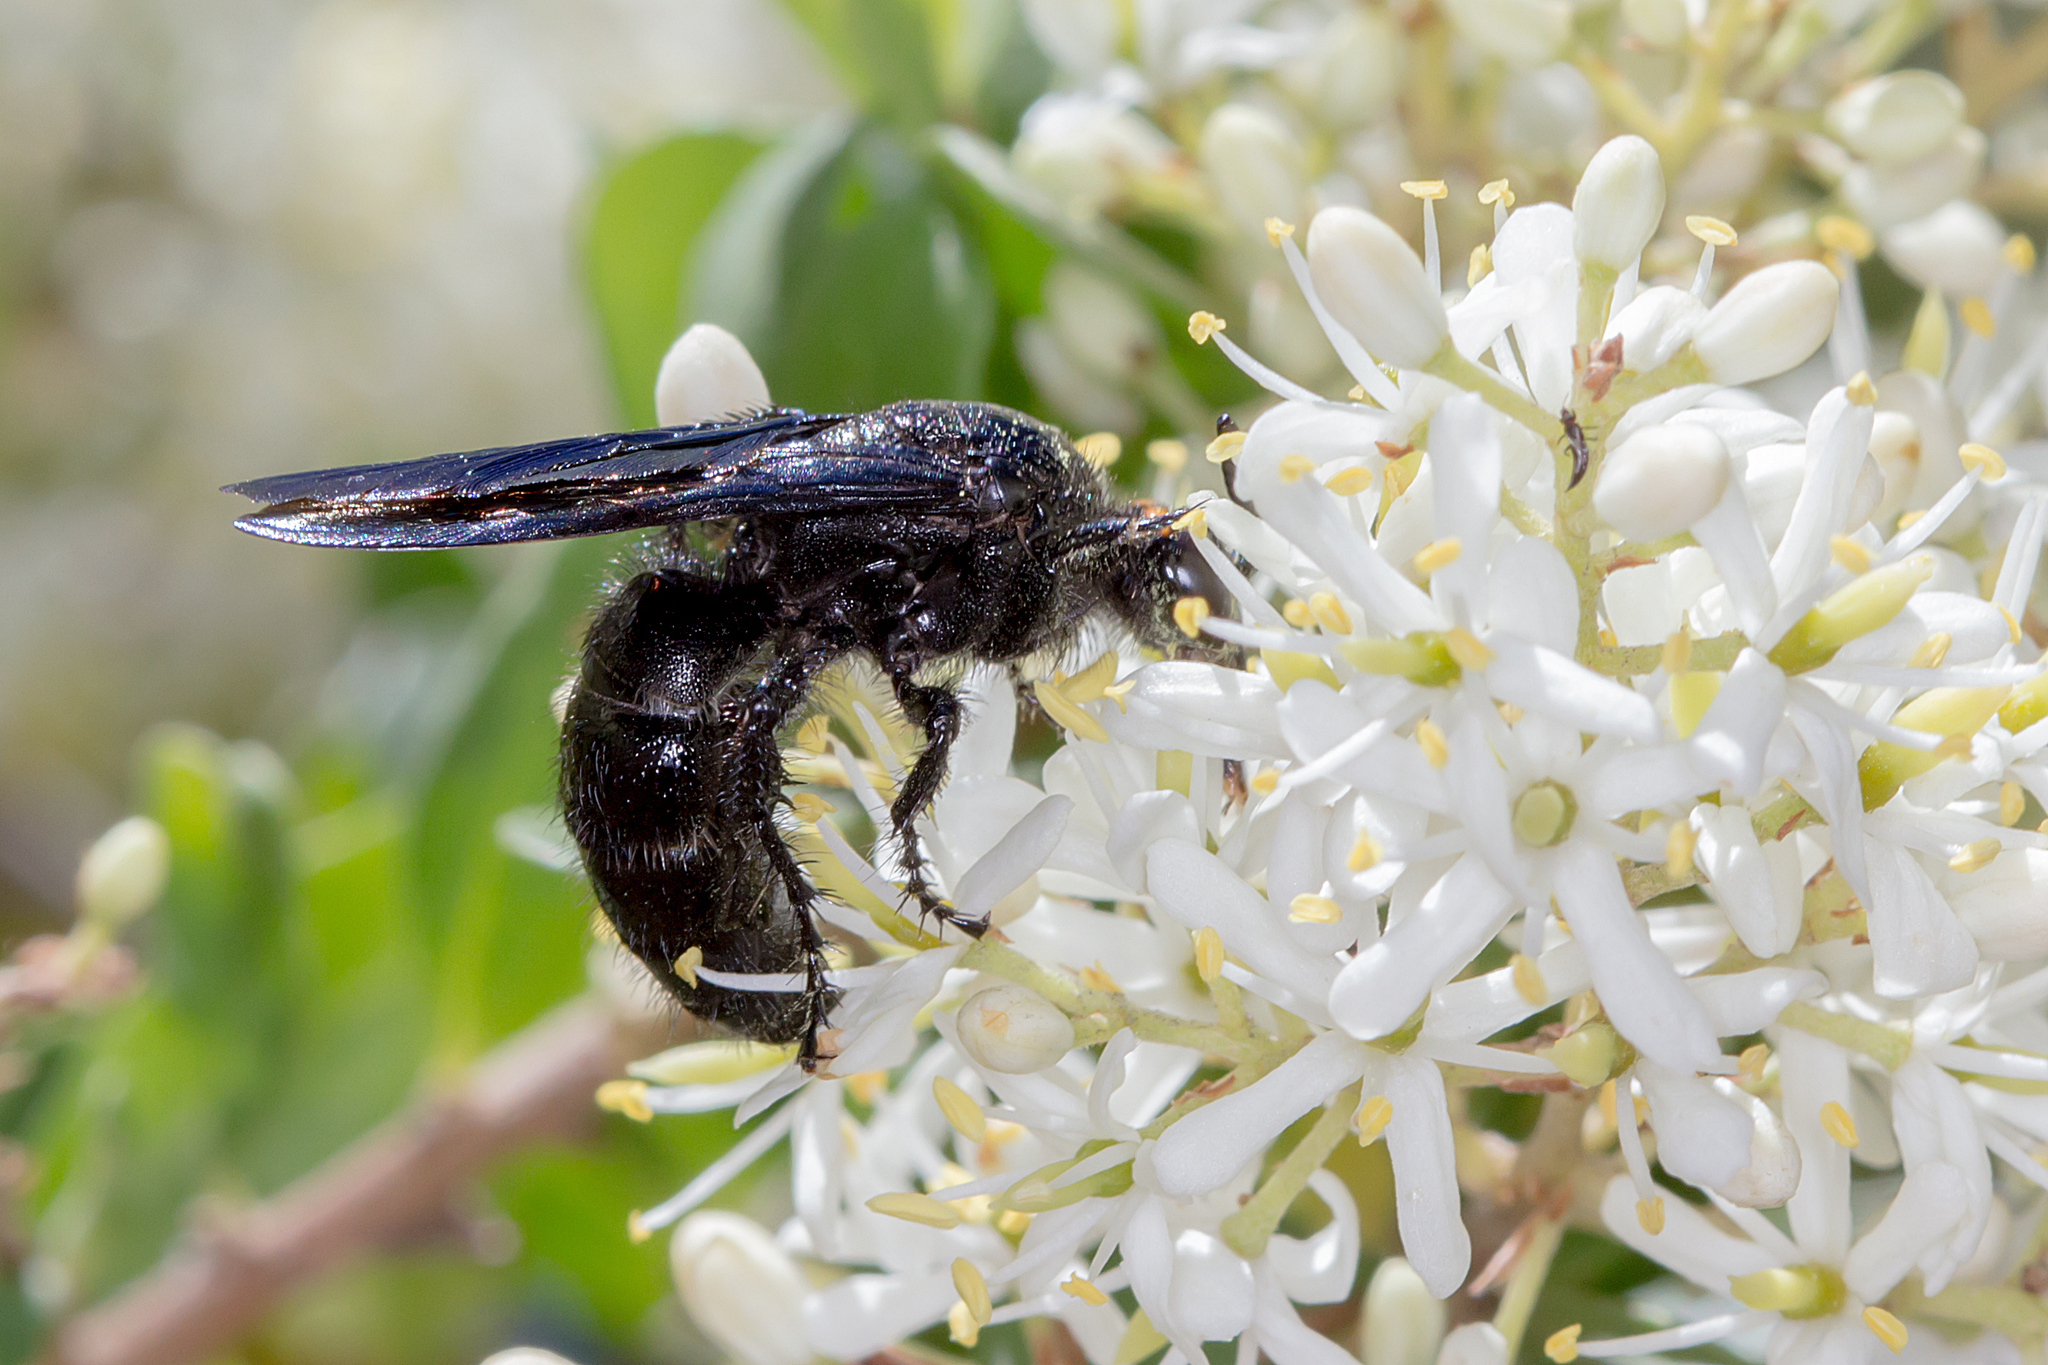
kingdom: Animalia
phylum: Arthropoda
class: Insecta
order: Hymenoptera
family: Scoliidae
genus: Scolia
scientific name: Scolia verticalis
